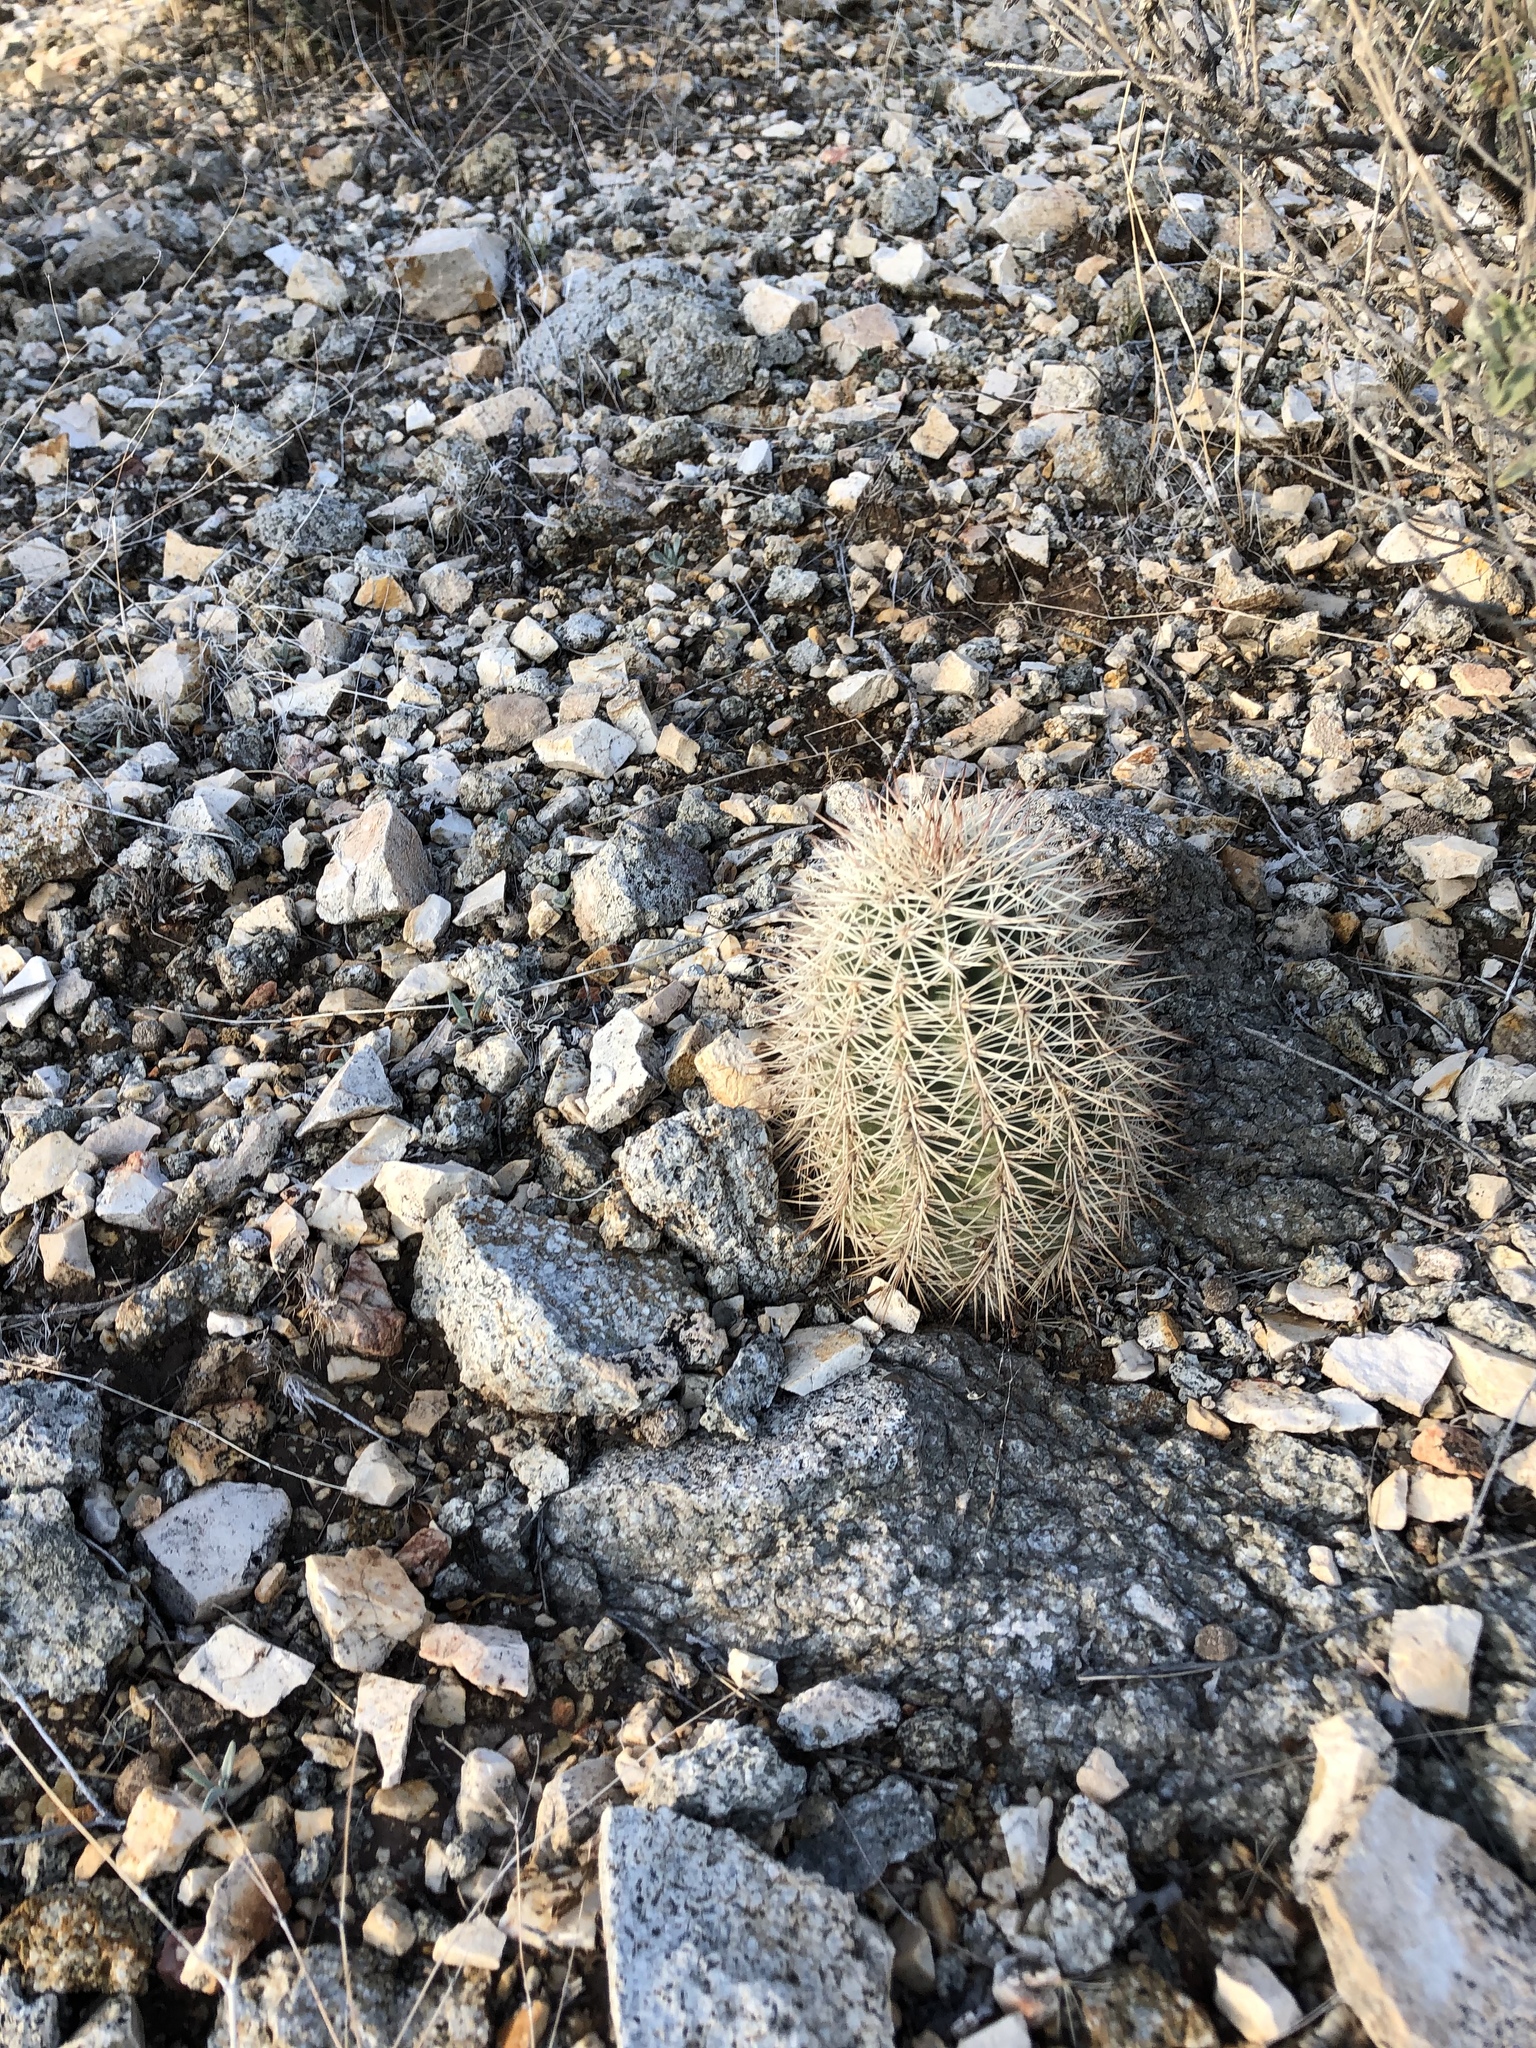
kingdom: Plantae
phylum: Tracheophyta
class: Magnoliopsida
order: Caryophyllales
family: Cactaceae
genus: Echinocereus
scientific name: Echinocereus roetteri
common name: Lloyd's hedgehog cactus
